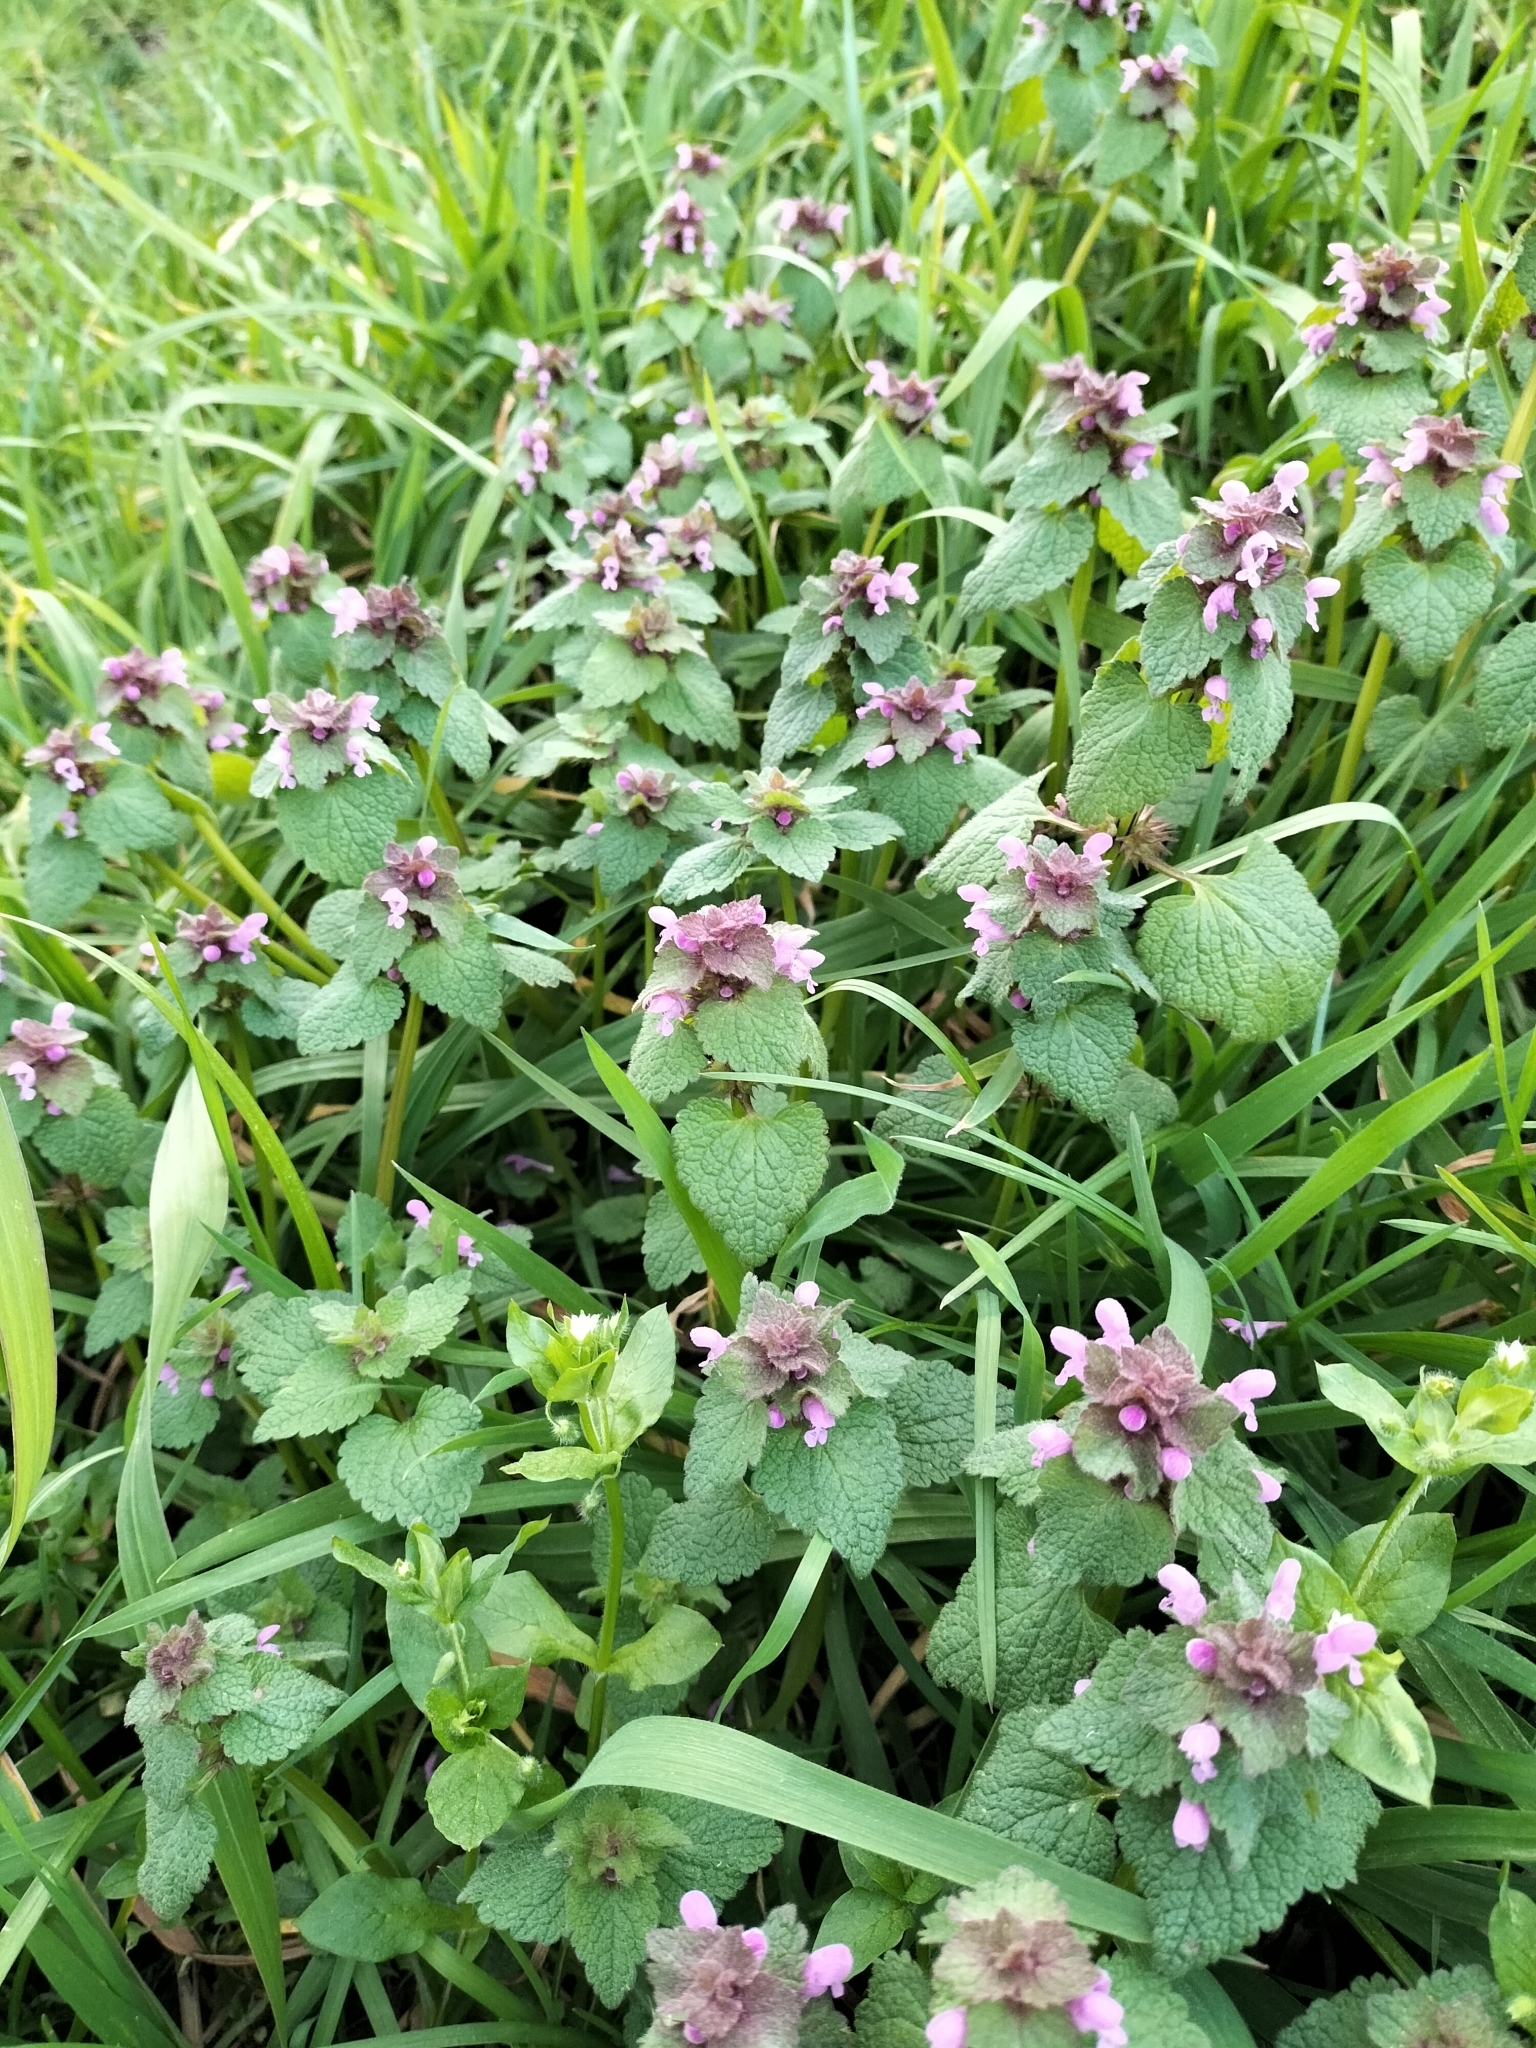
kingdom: Plantae
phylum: Tracheophyta
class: Magnoliopsida
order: Lamiales
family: Lamiaceae
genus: Lamium
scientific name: Lamium purpureum
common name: Red dead-nettle
